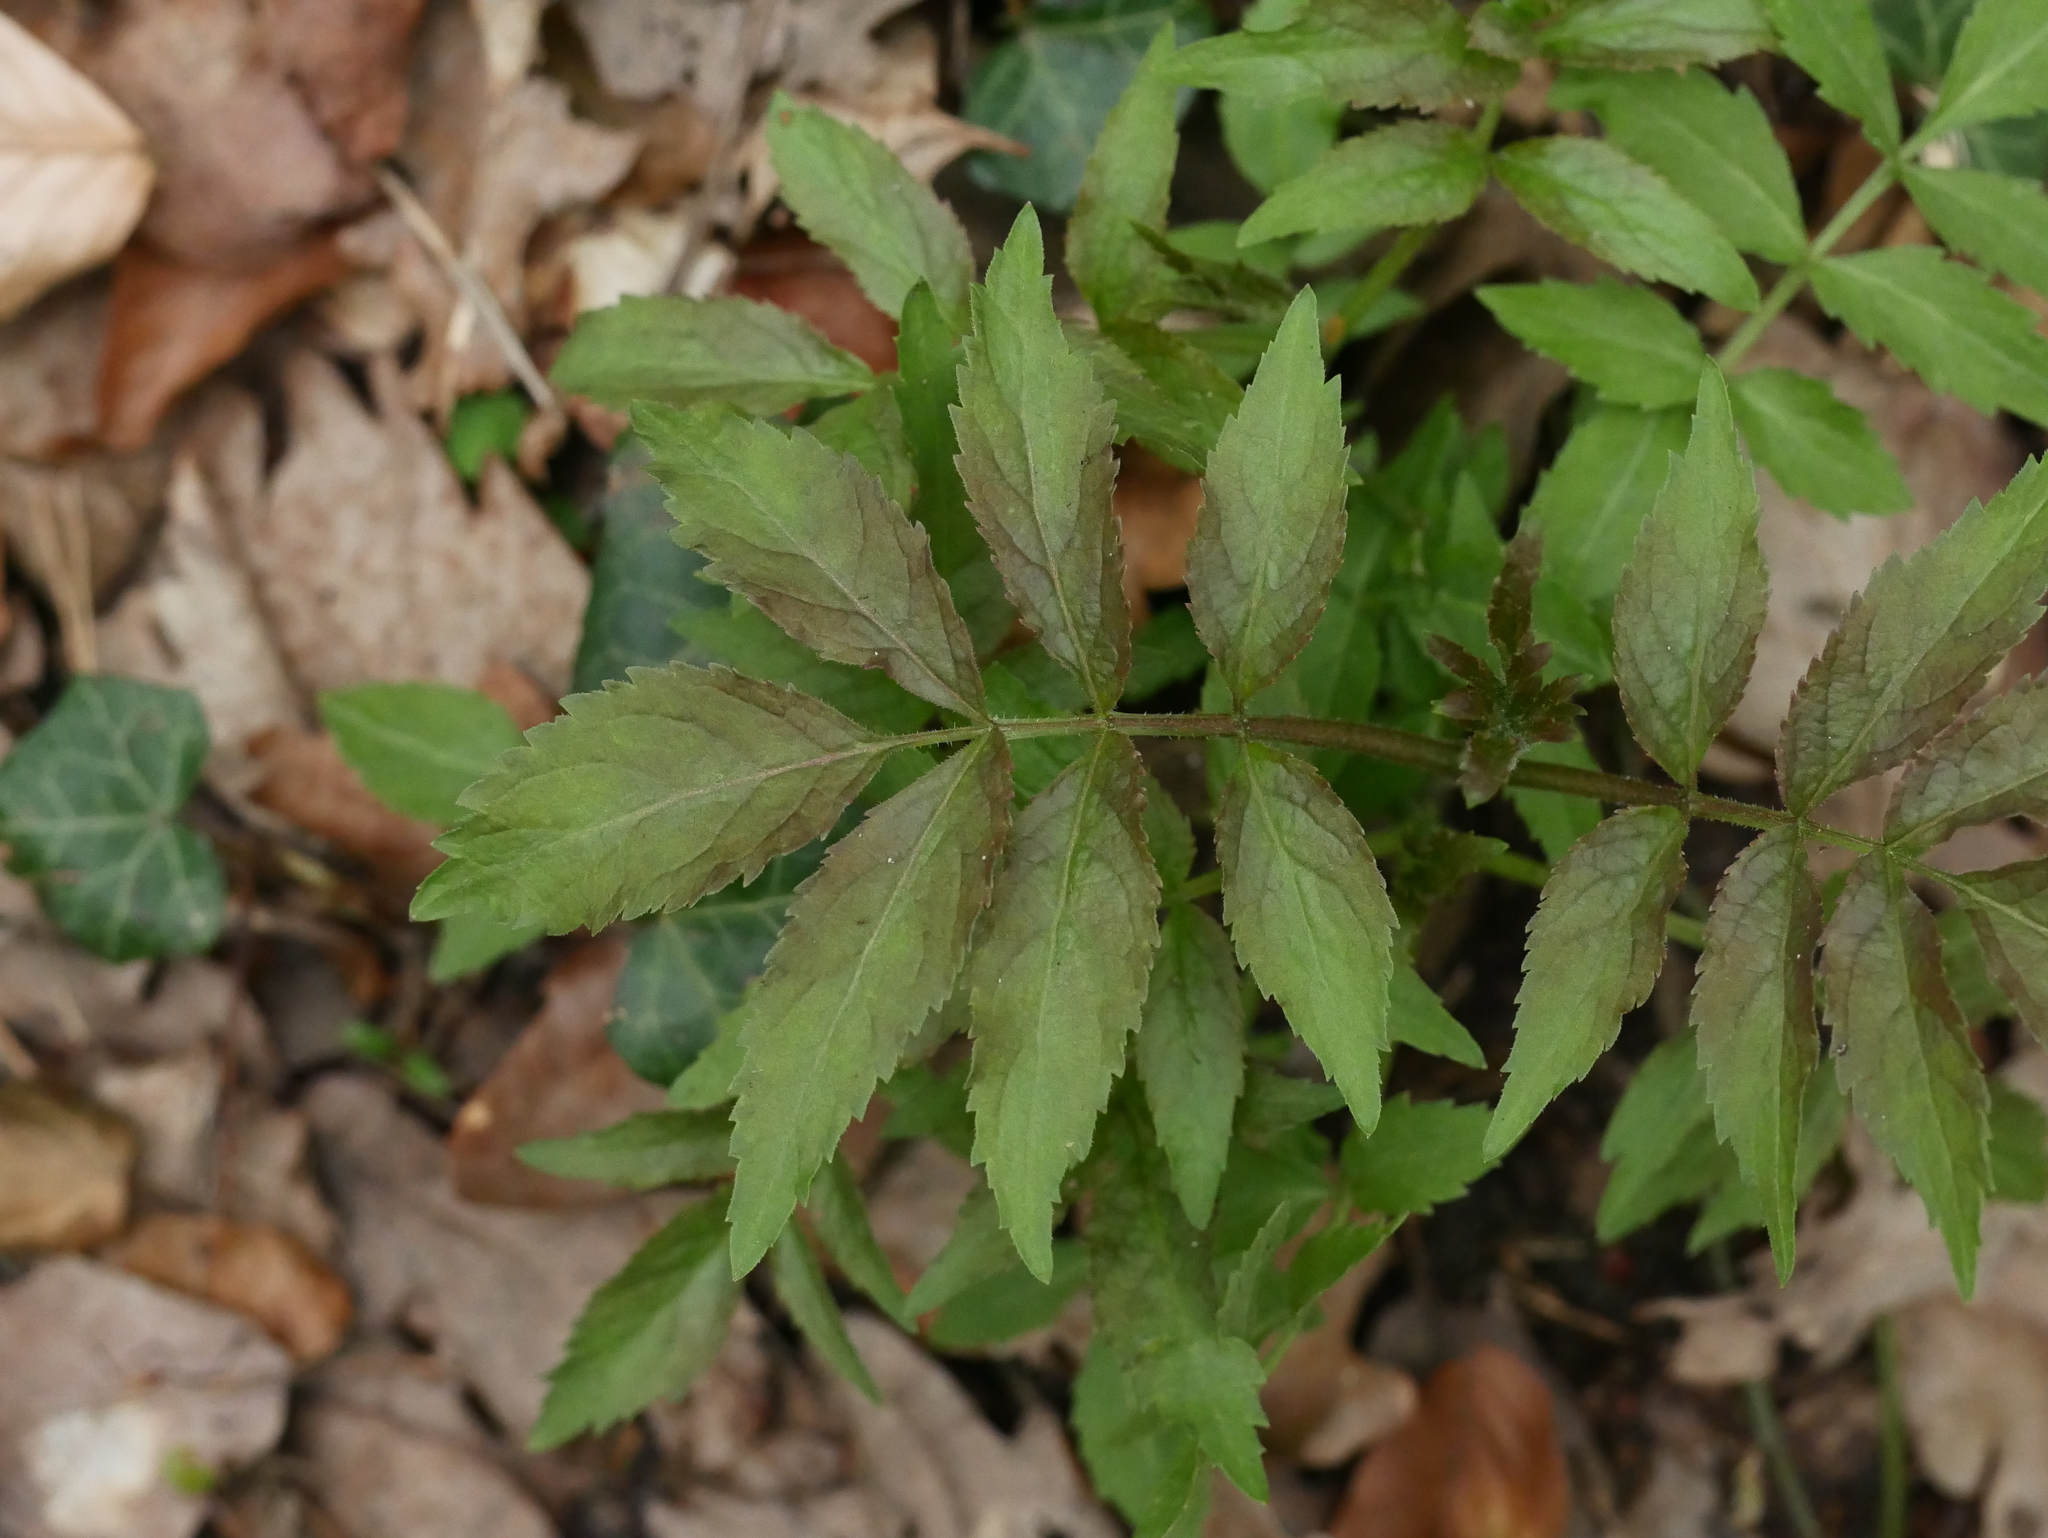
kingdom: Plantae
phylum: Tracheophyta
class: Magnoliopsida
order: Dipsacales
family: Viburnaceae
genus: Sambucus
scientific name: Sambucus racemosa
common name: Red-berried elder
